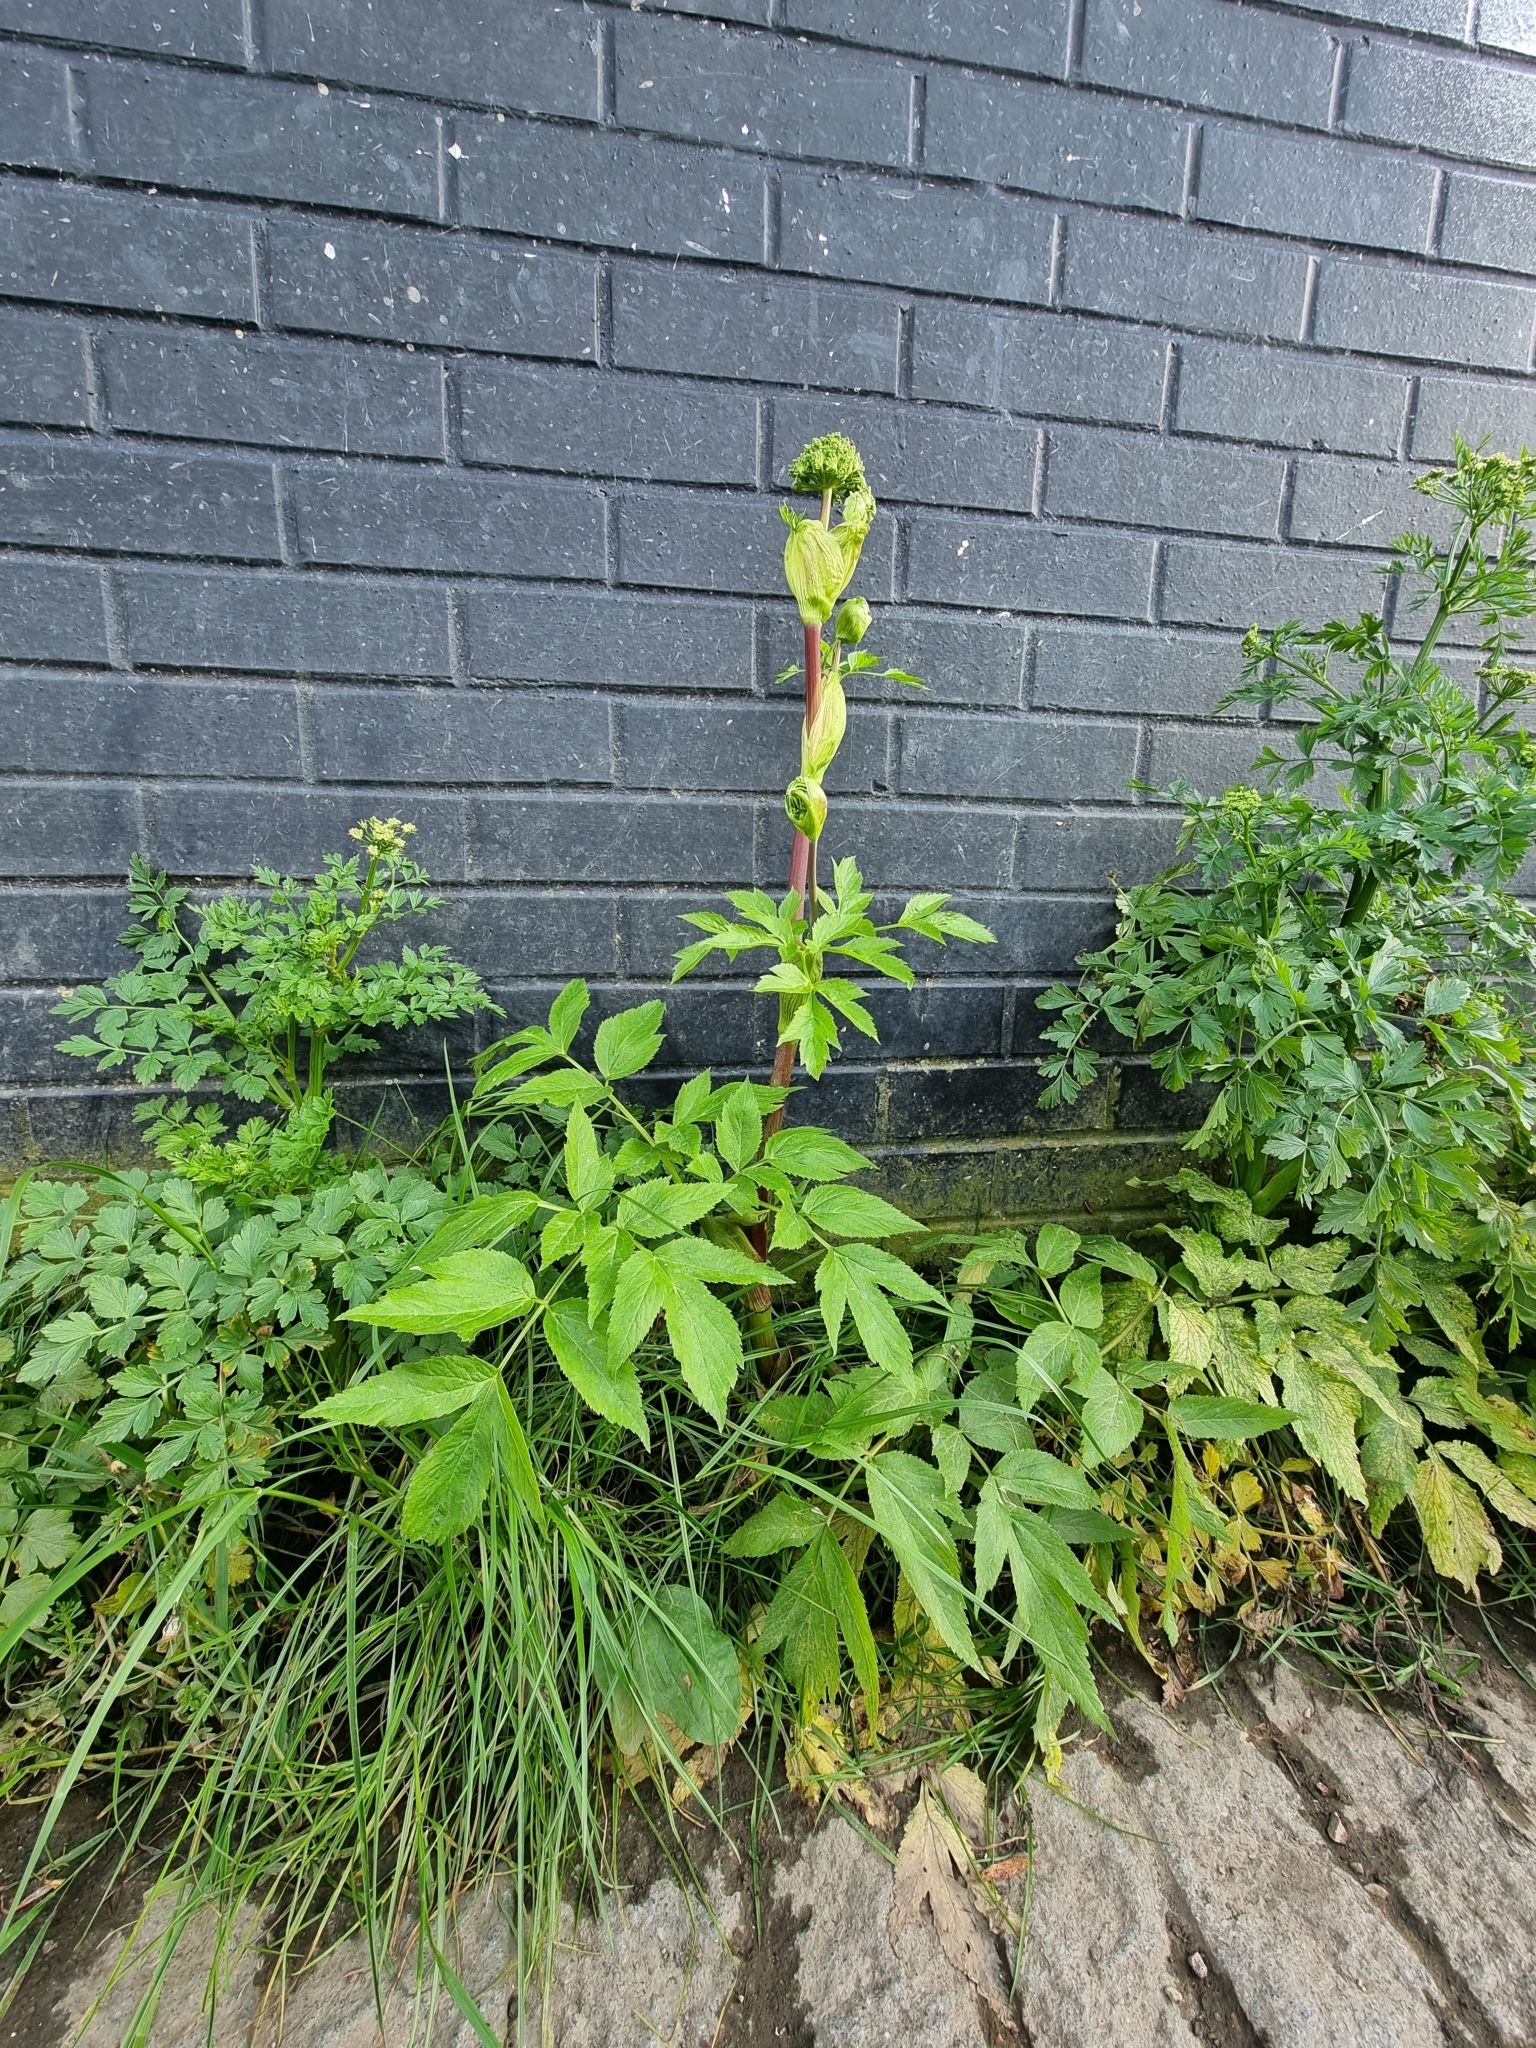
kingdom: Plantae
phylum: Tracheophyta
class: Magnoliopsida
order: Apiales
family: Apiaceae
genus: Angelica
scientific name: Angelica archangelica
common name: Garden angelica
